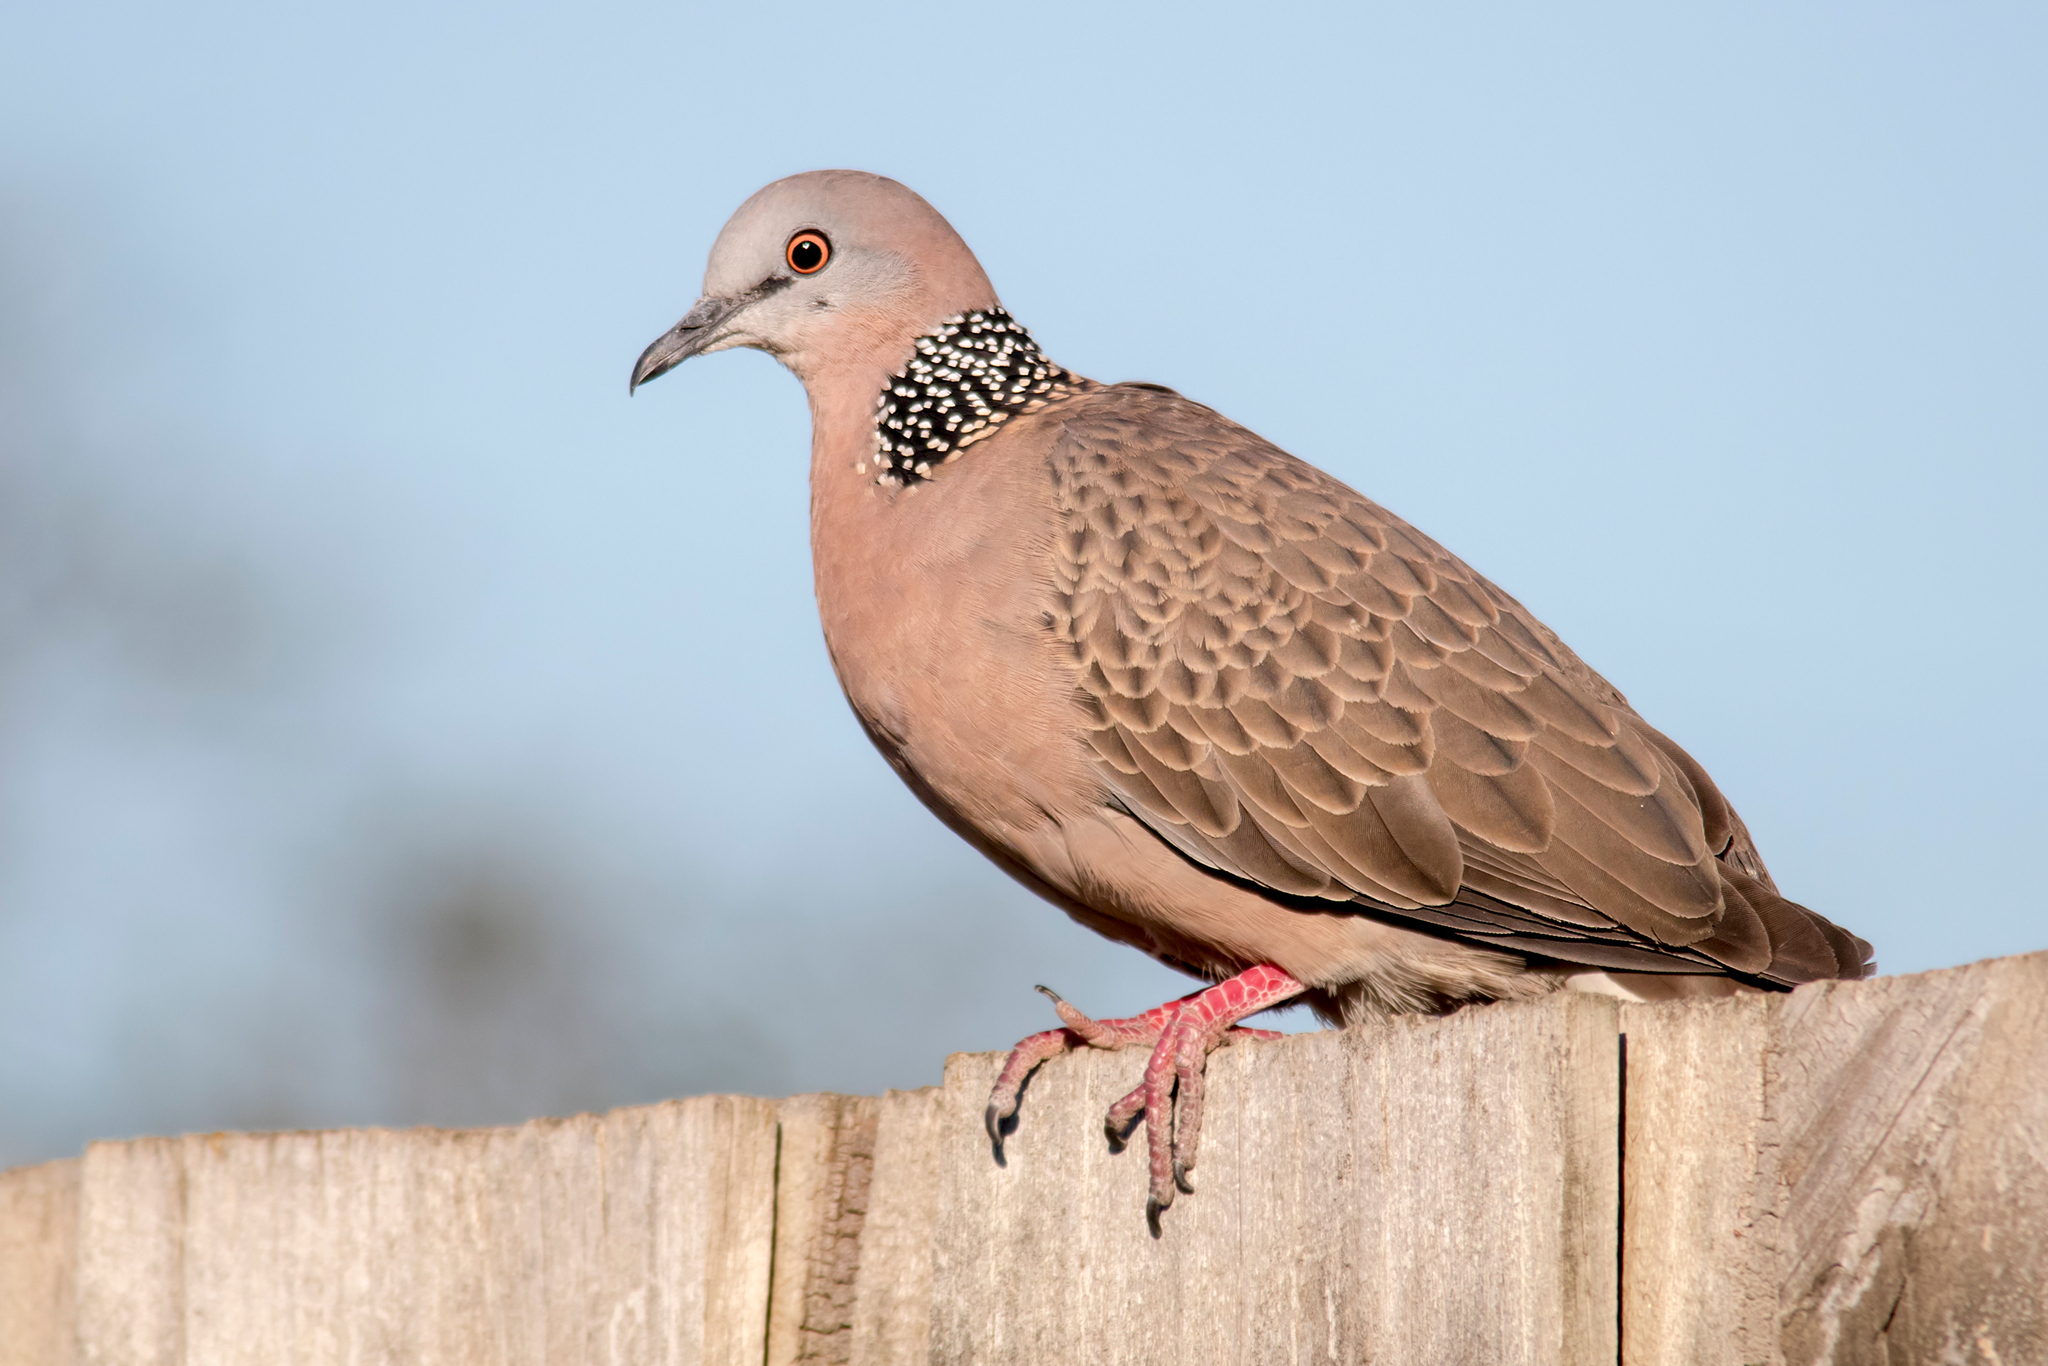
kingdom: Animalia
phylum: Chordata
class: Aves
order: Columbiformes
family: Columbidae
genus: Spilopelia
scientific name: Spilopelia chinensis
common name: Spotted dove
